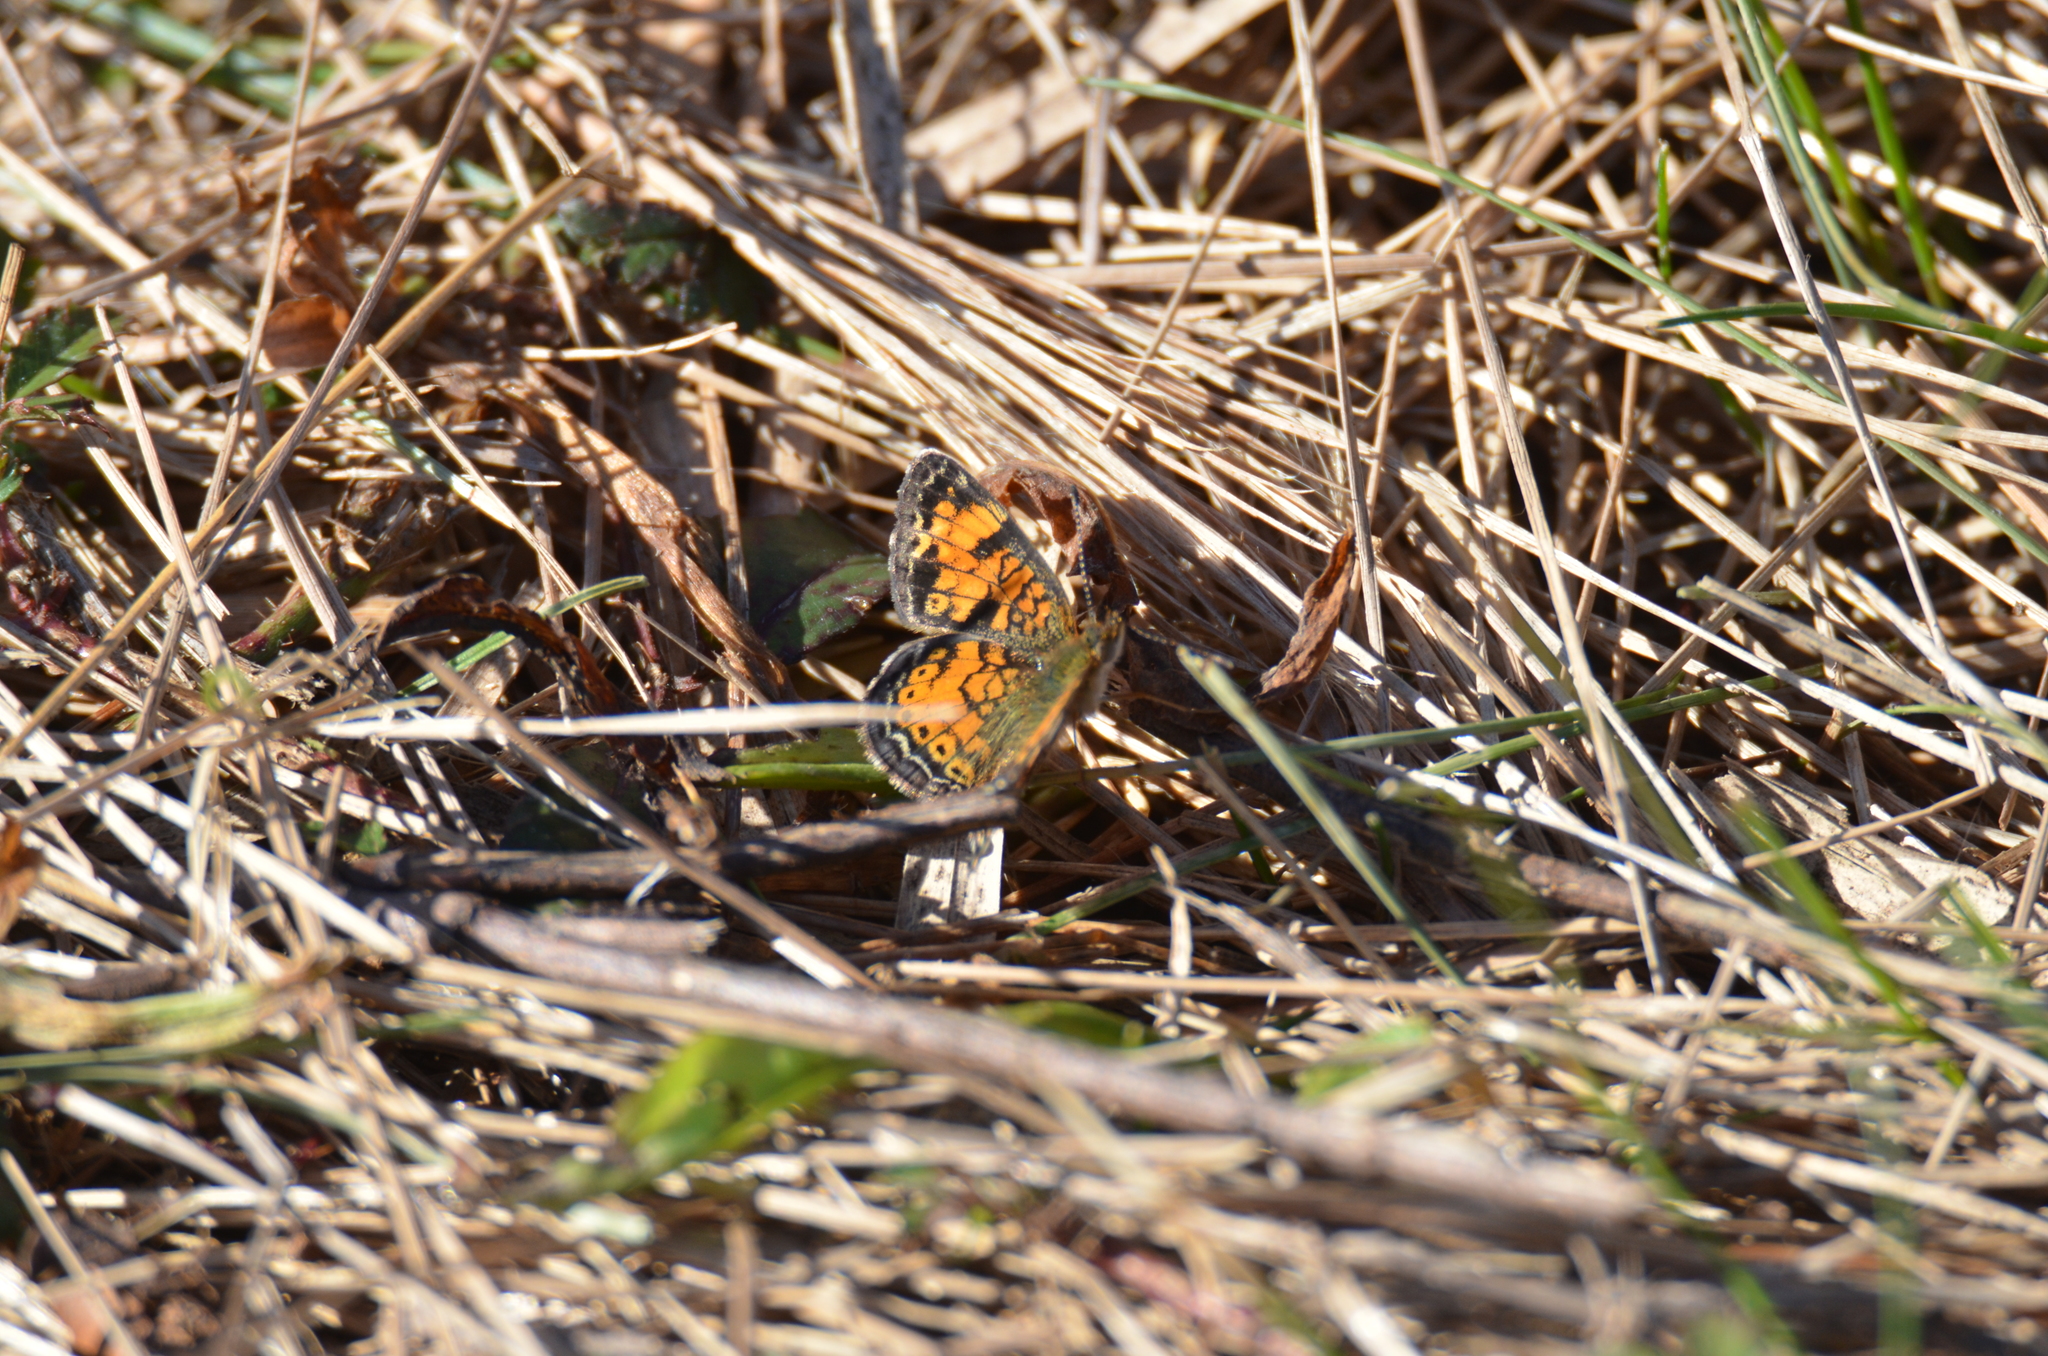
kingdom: Animalia
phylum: Arthropoda
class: Insecta
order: Lepidoptera
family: Nymphalidae
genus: Phyciodes
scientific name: Phyciodes tharos
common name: Pearl crescent
